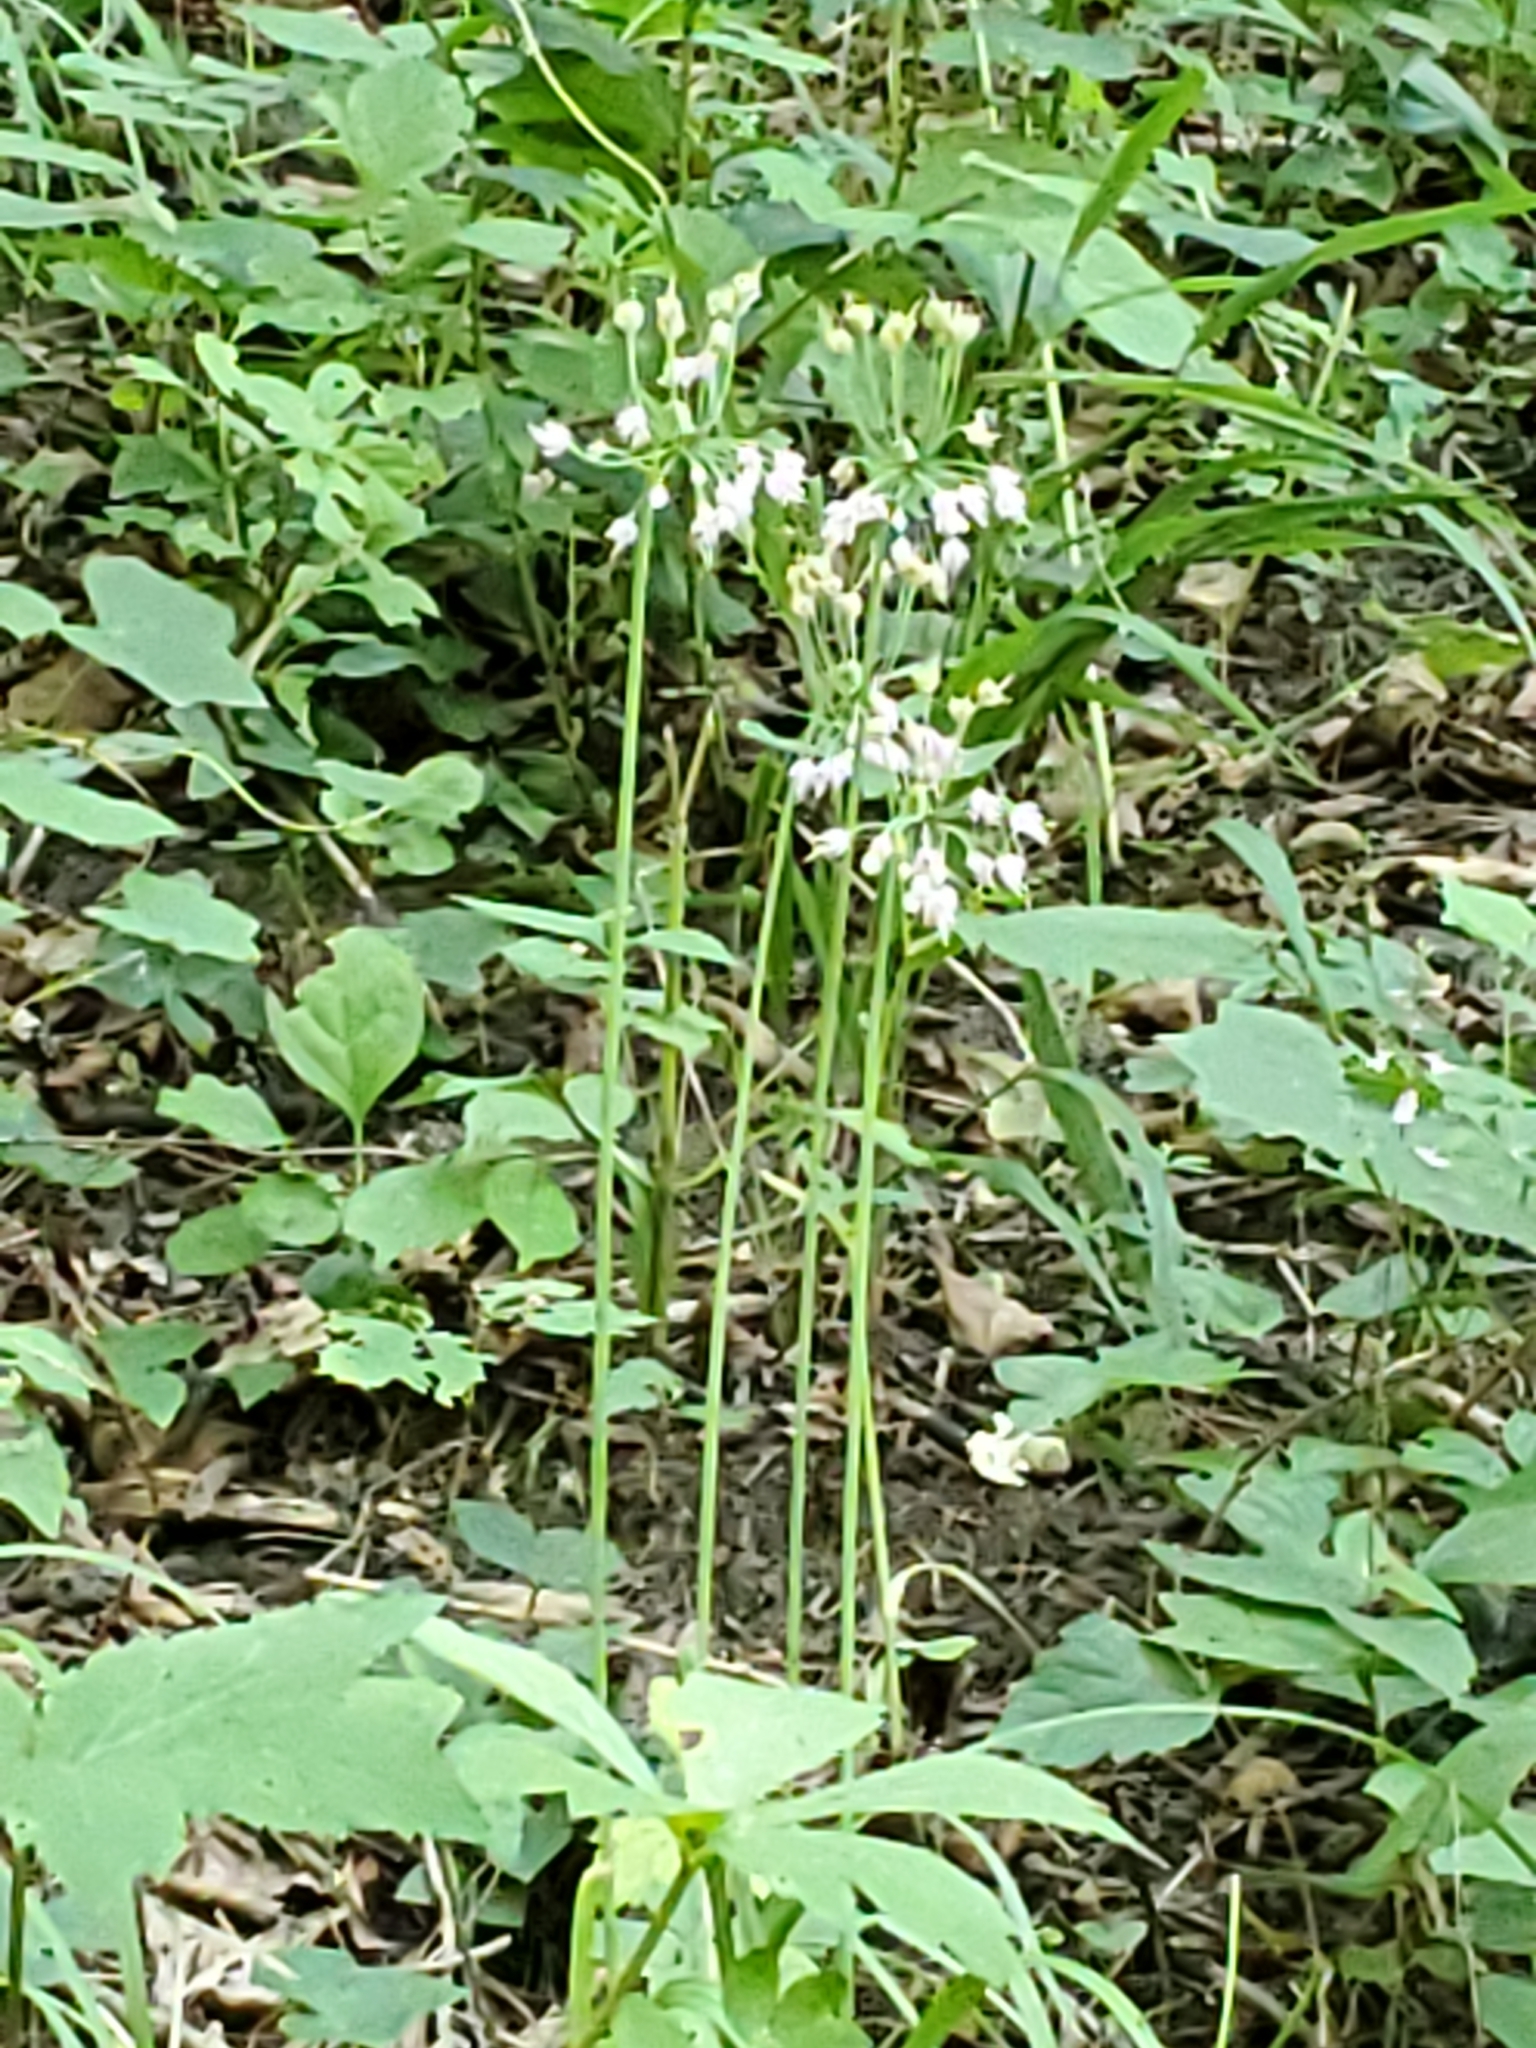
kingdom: Plantae
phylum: Tracheophyta
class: Liliopsida
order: Asparagales
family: Amaryllidaceae
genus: Allium
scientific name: Allium cernuum
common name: Nodding onion
